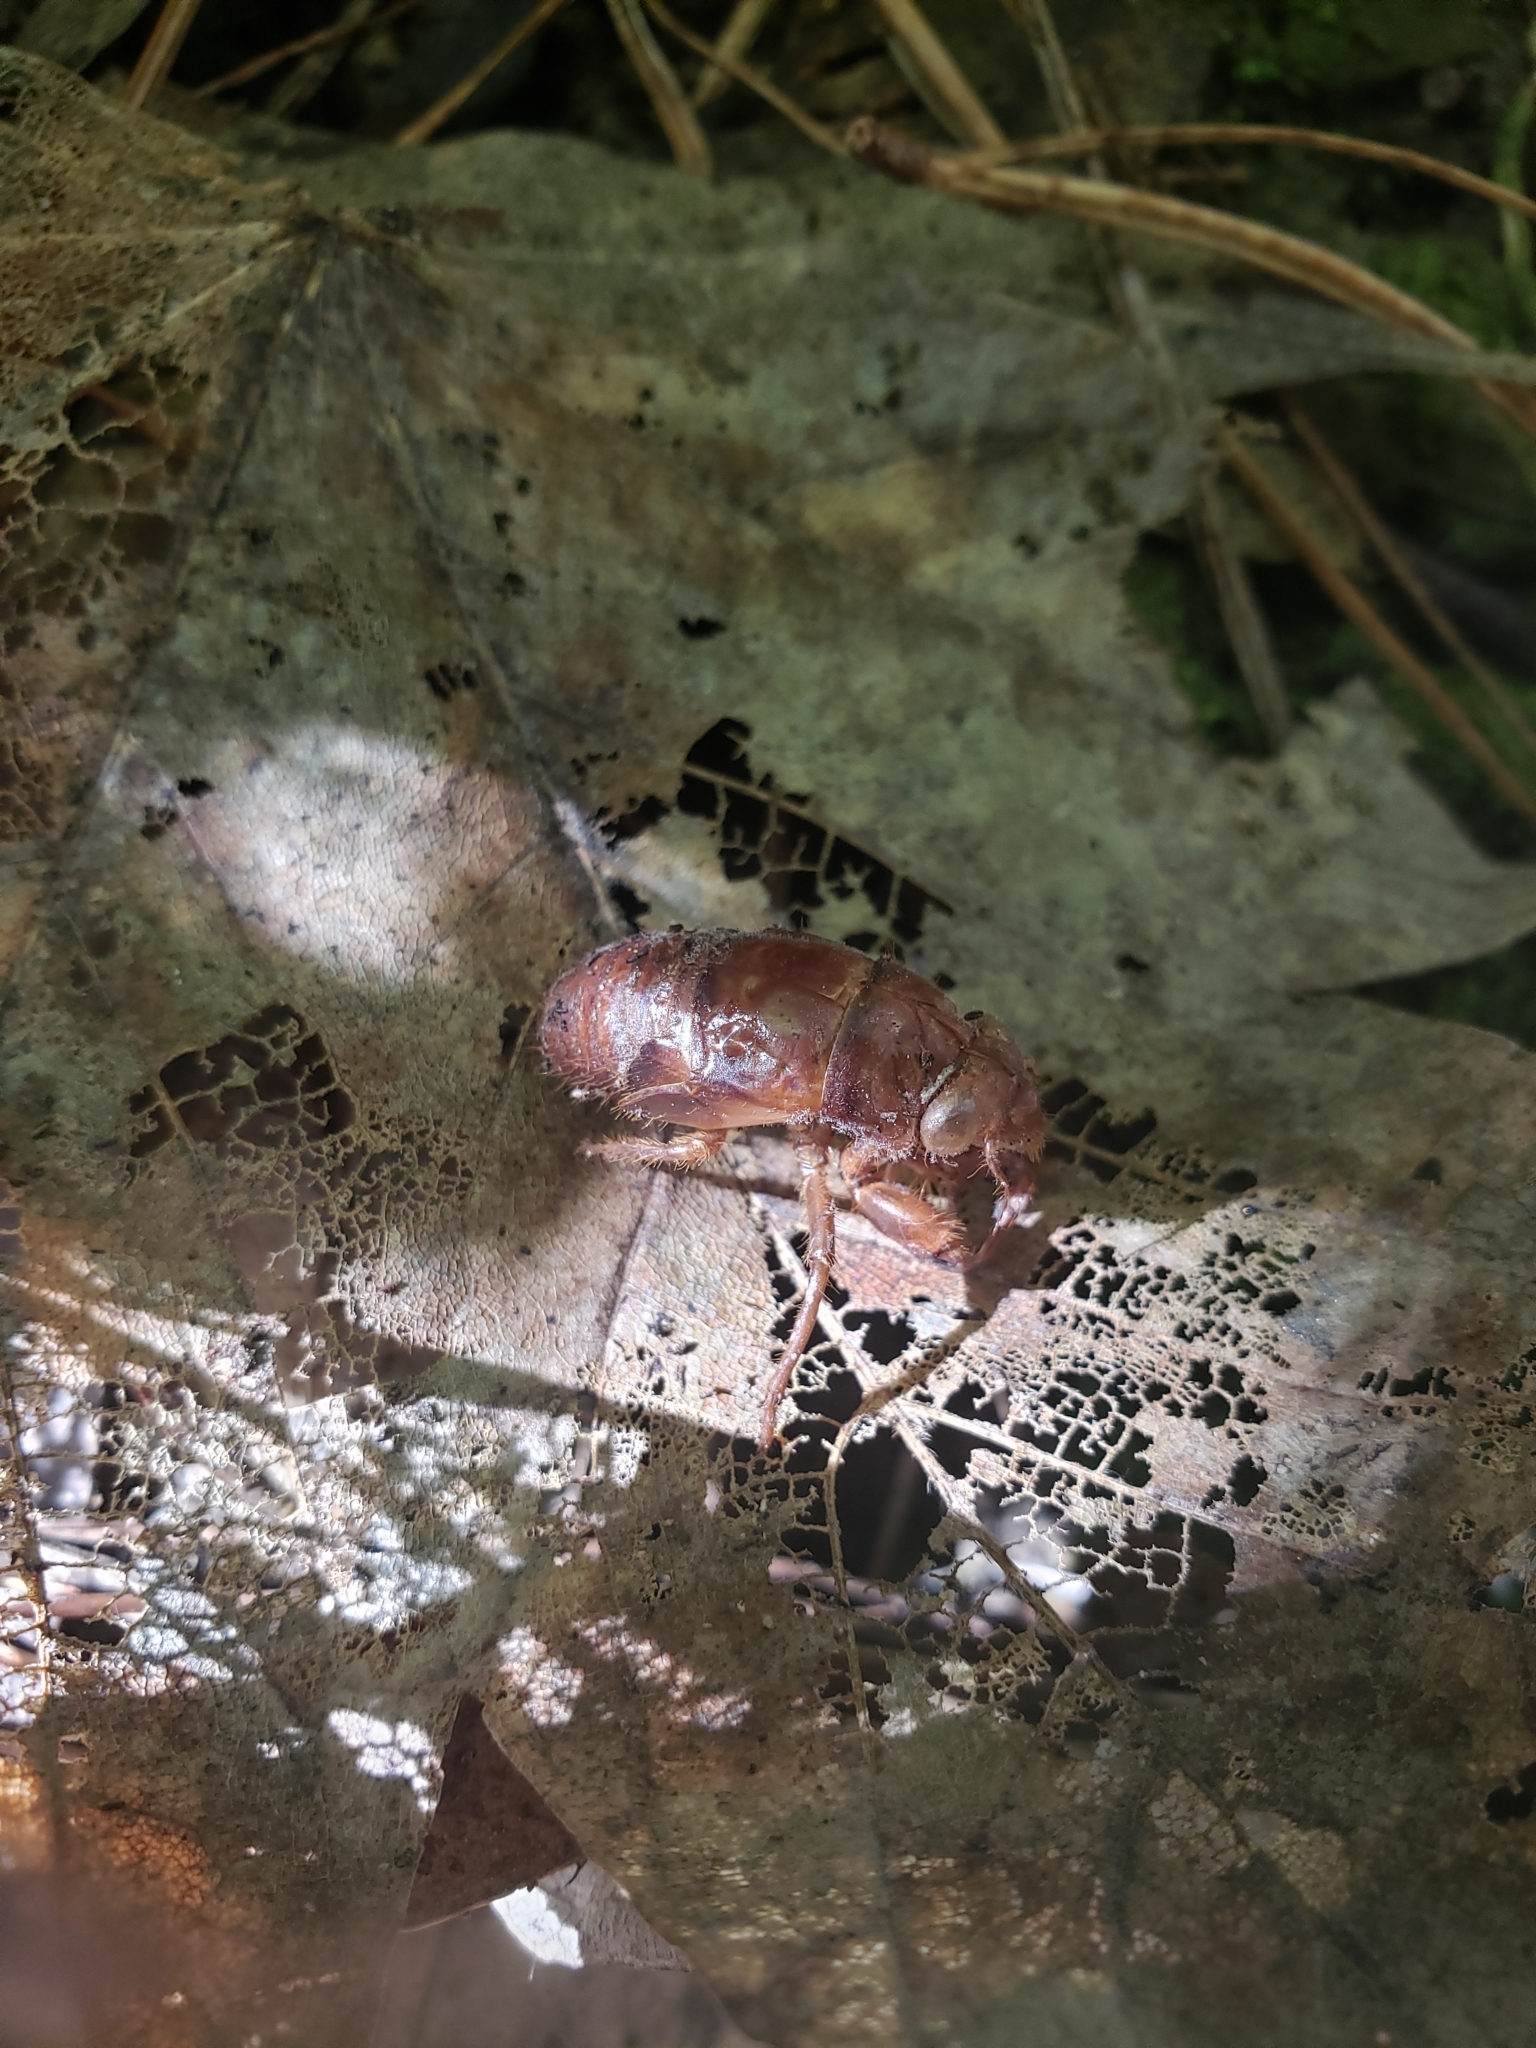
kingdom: Animalia
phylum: Arthropoda
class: Insecta
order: Hemiptera
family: Cicadidae
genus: Amphipsalta
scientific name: Amphipsalta zelandica
